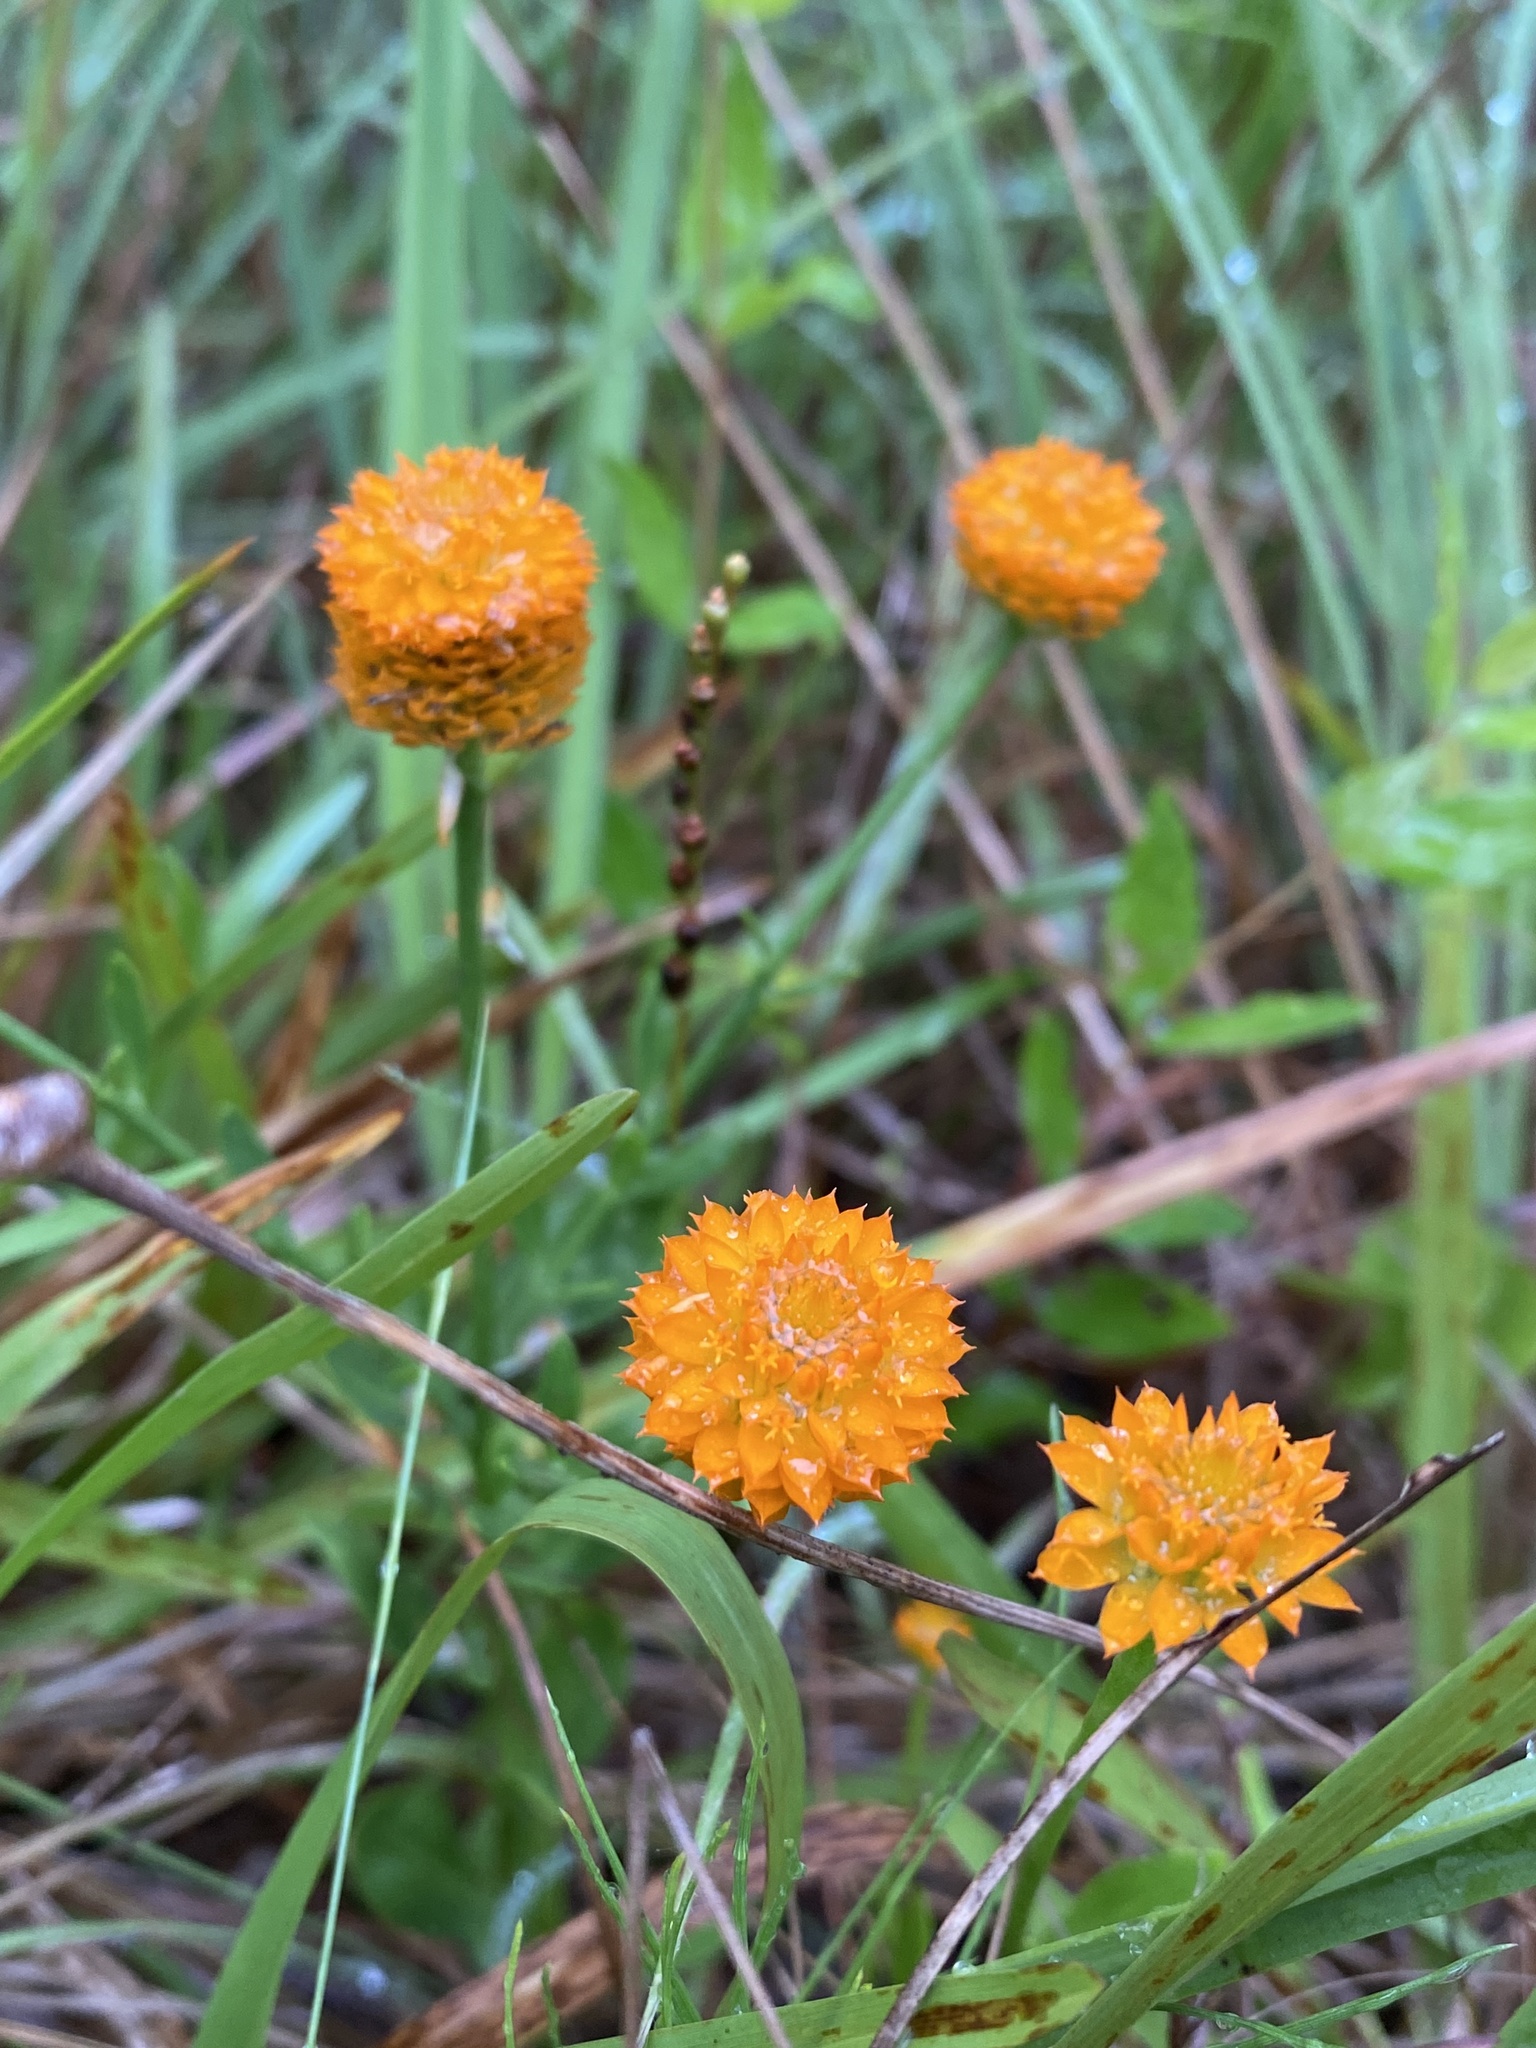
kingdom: Plantae
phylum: Tracheophyta
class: Magnoliopsida
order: Fabales
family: Polygalaceae
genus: Polygala
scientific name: Polygala lutea
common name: Orange milkwort
